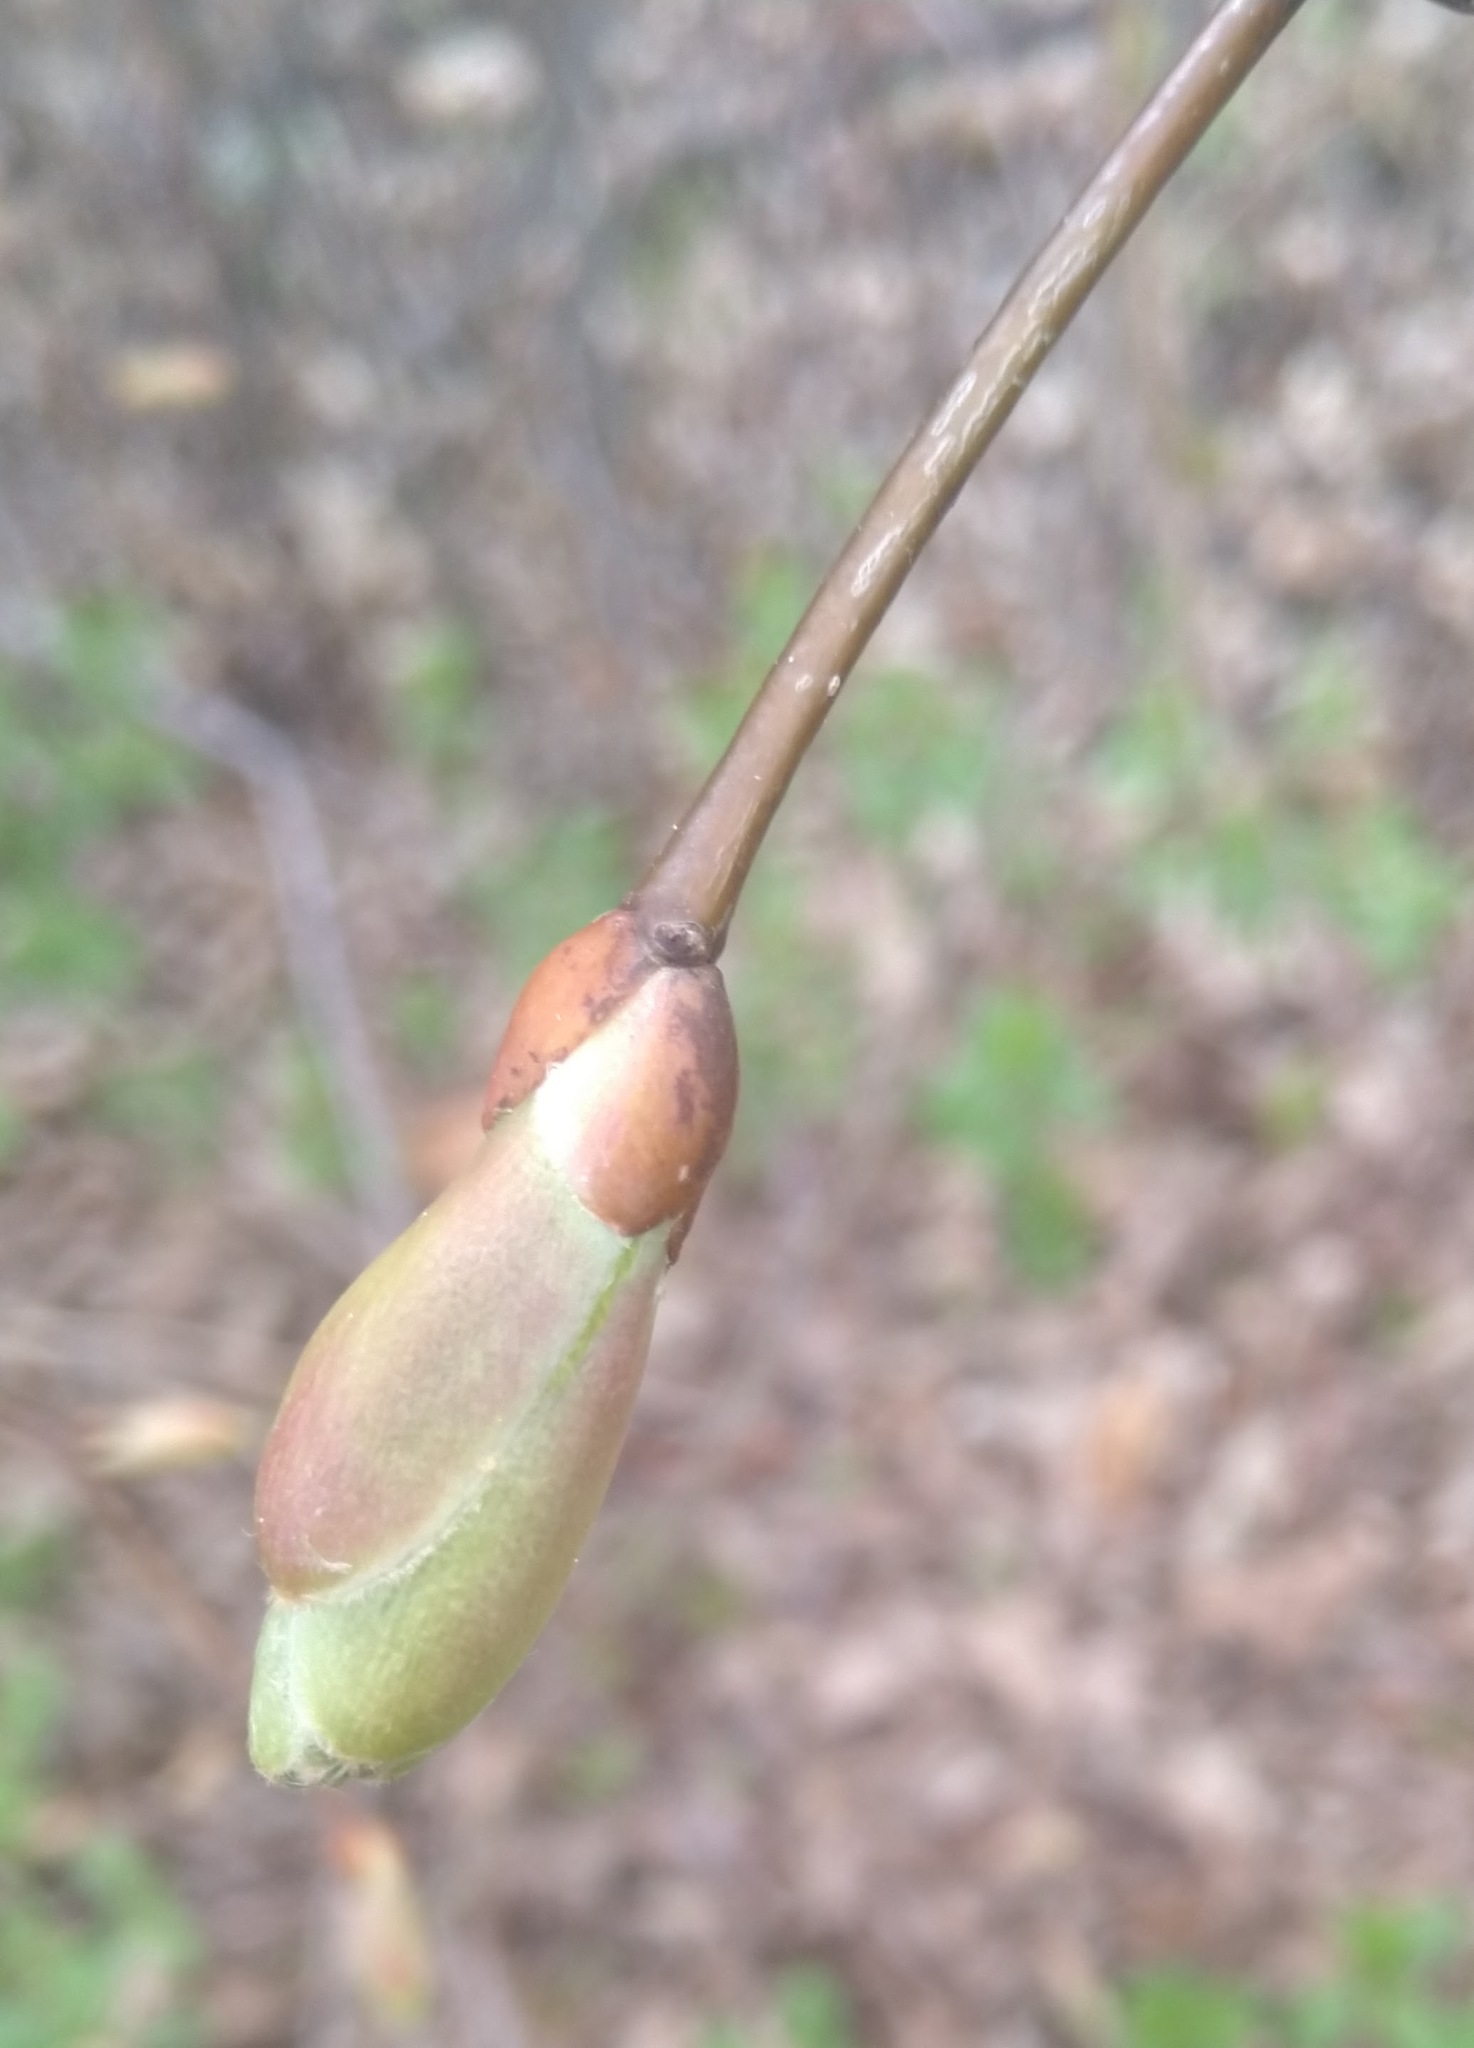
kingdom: Plantae
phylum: Tracheophyta
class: Magnoliopsida
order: Malvales
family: Malvaceae
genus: Tilia
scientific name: Tilia cordata
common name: Small-leaved lime
